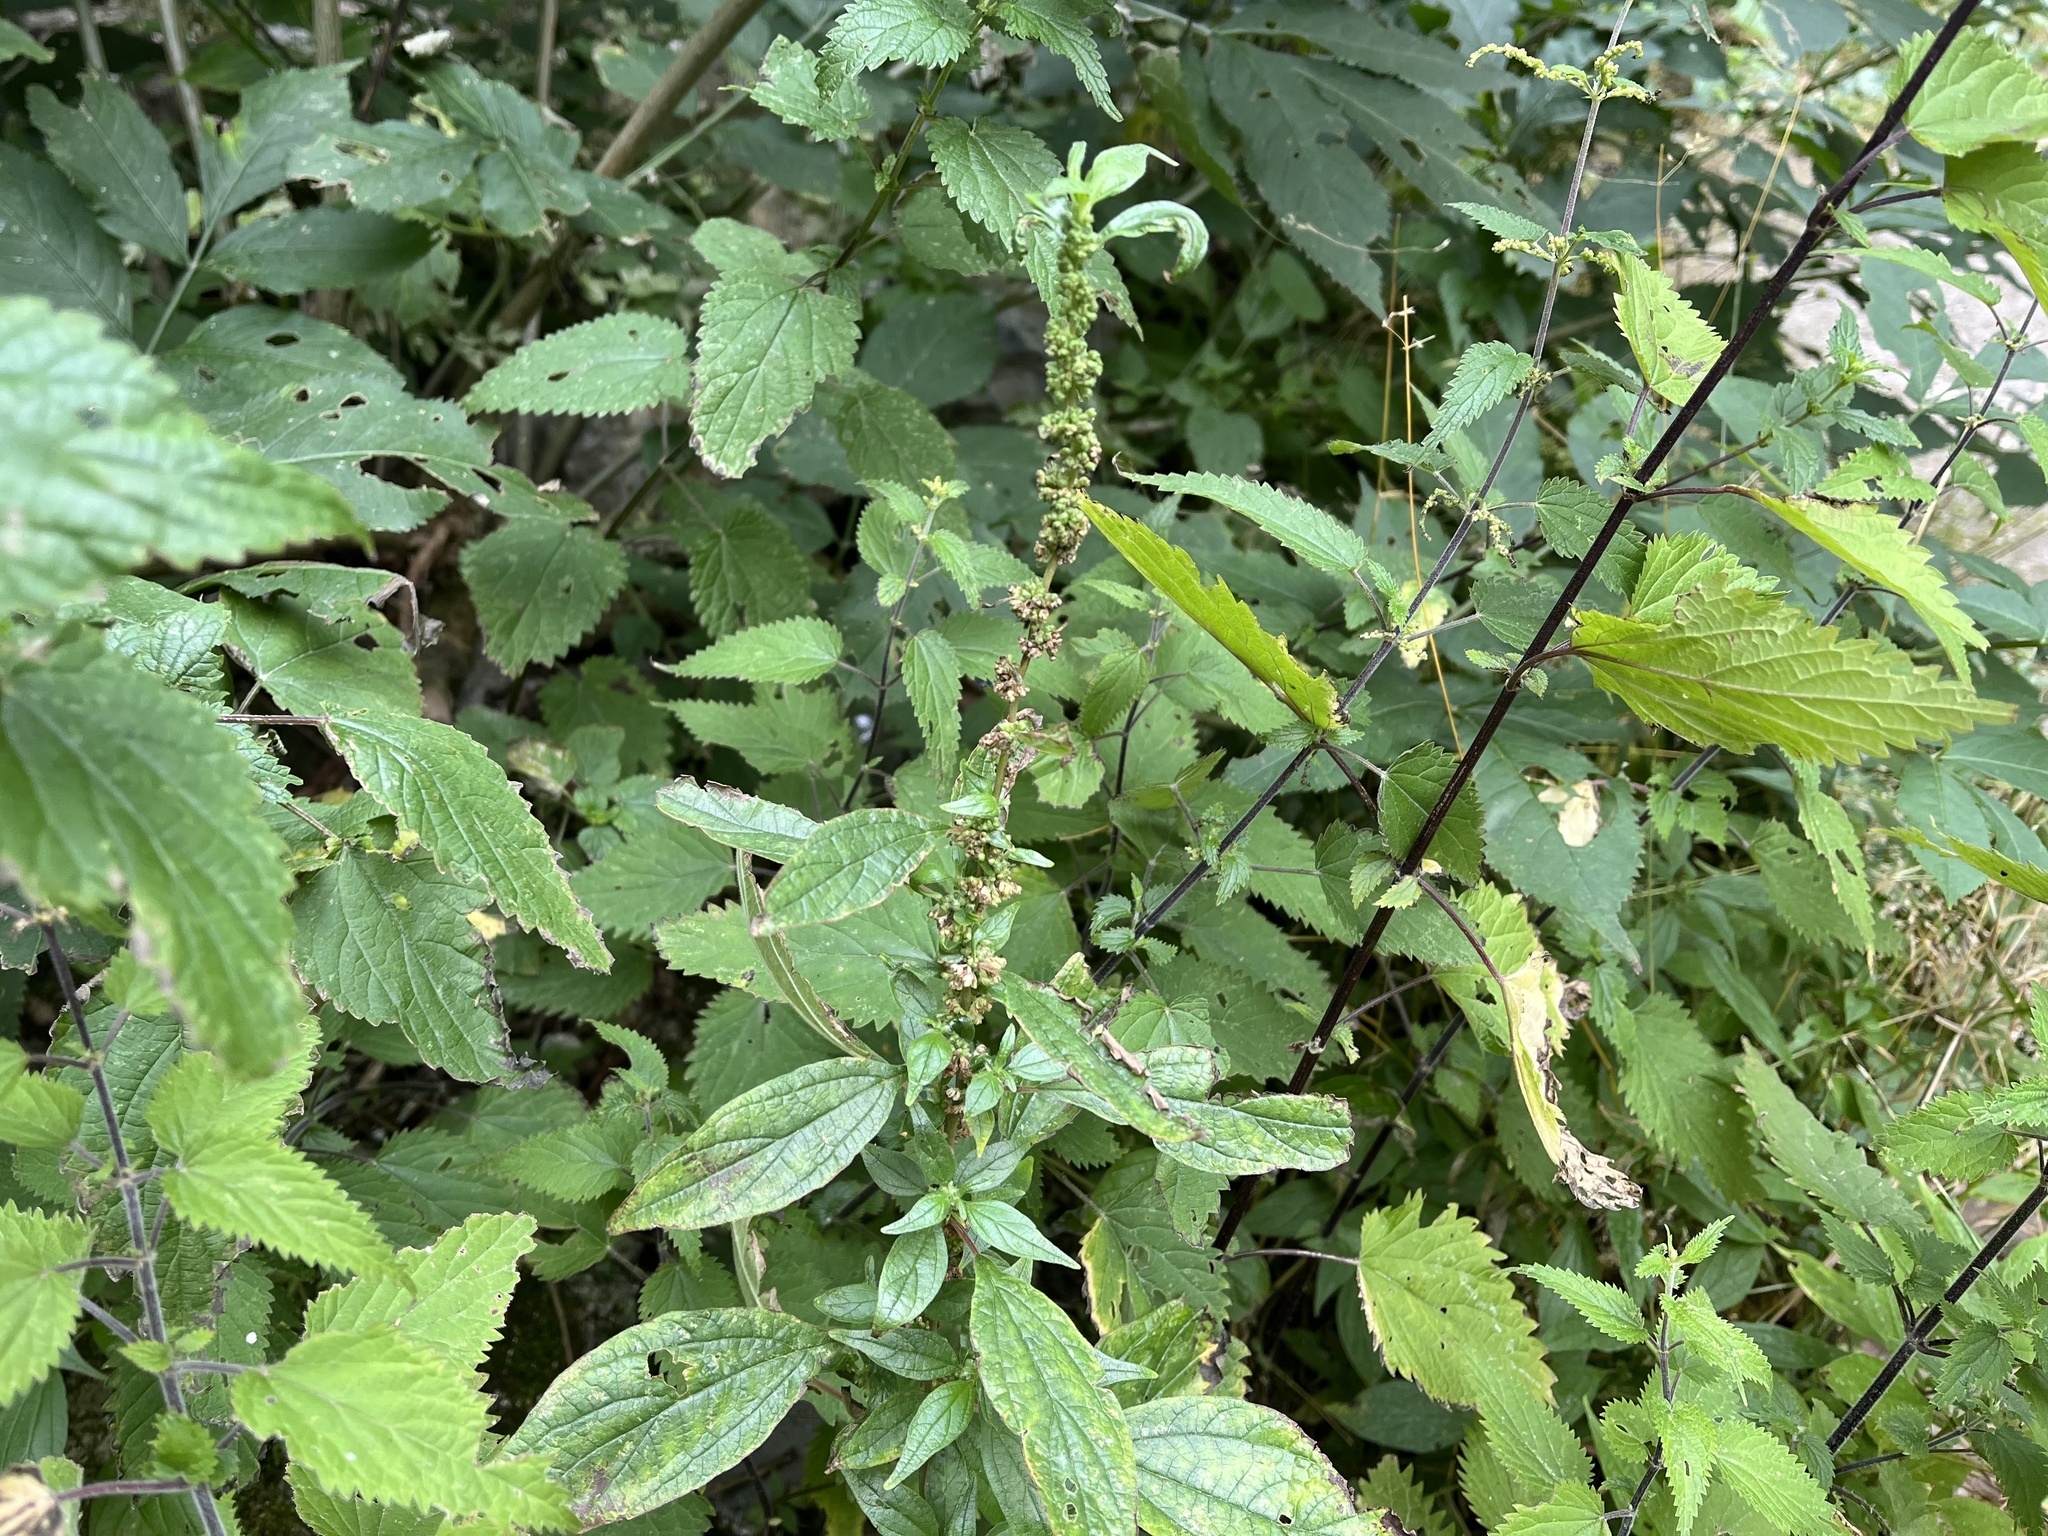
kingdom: Plantae
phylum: Tracheophyta
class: Magnoliopsida
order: Rosales
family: Urticaceae
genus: Parietaria
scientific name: Parietaria officinalis
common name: Eastern pellitory-of-the-wall
